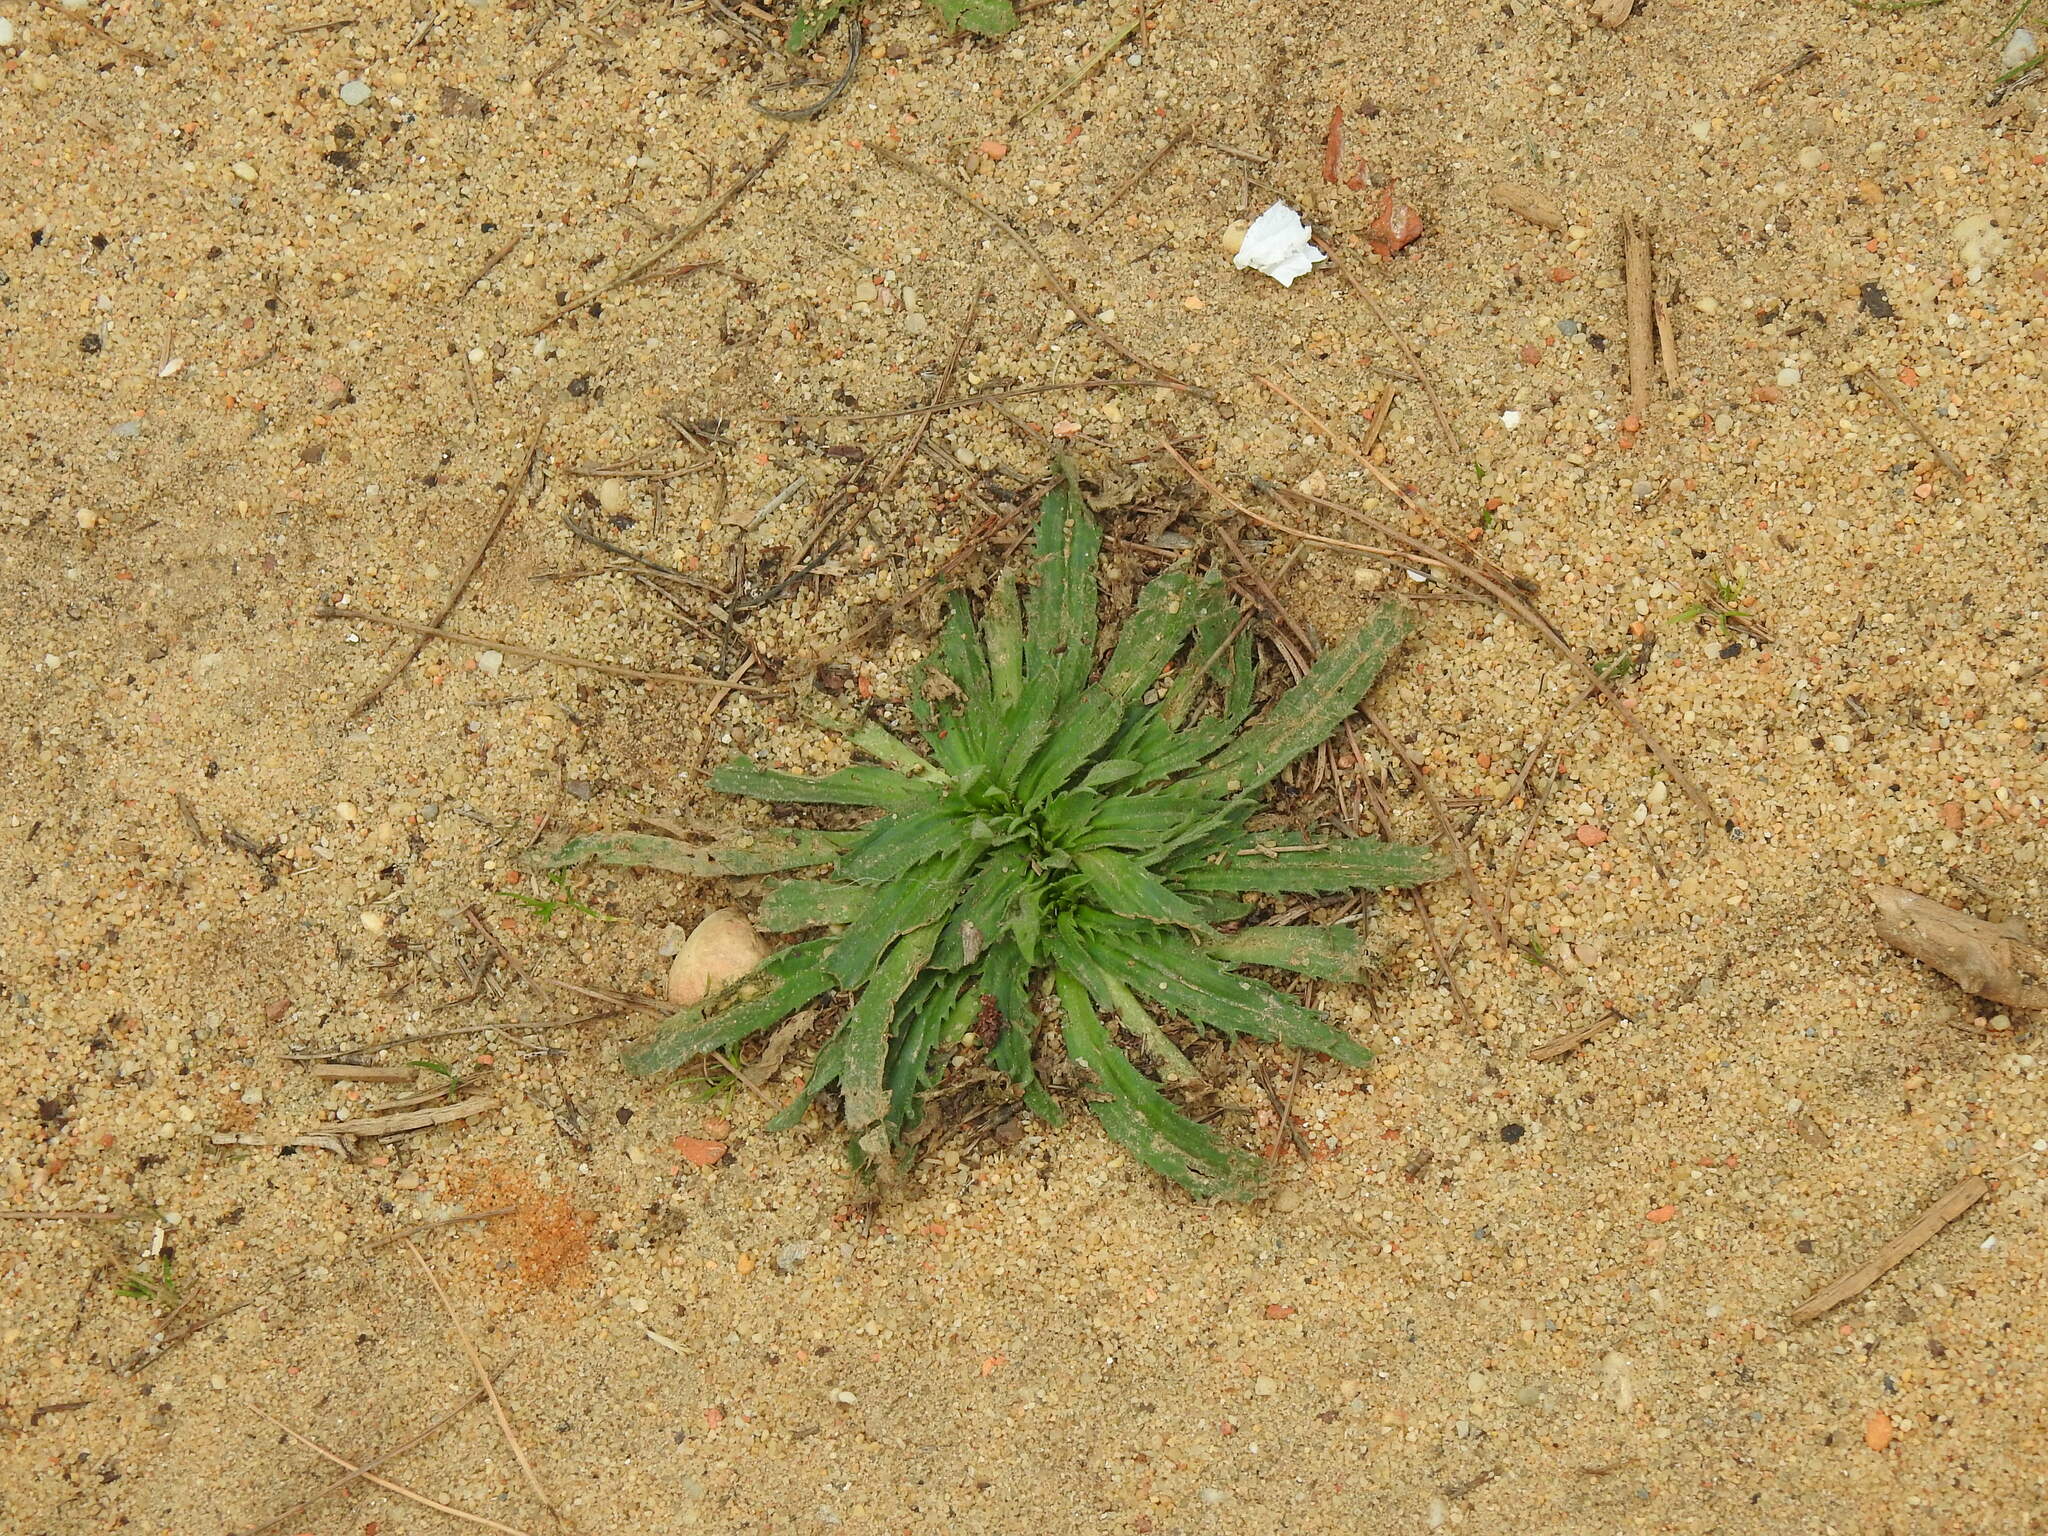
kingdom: Plantae
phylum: Tracheophyta
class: Magnoliopsida
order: Lamiales
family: Plantaginaceae
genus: Plantago
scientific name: Plantago serraria
